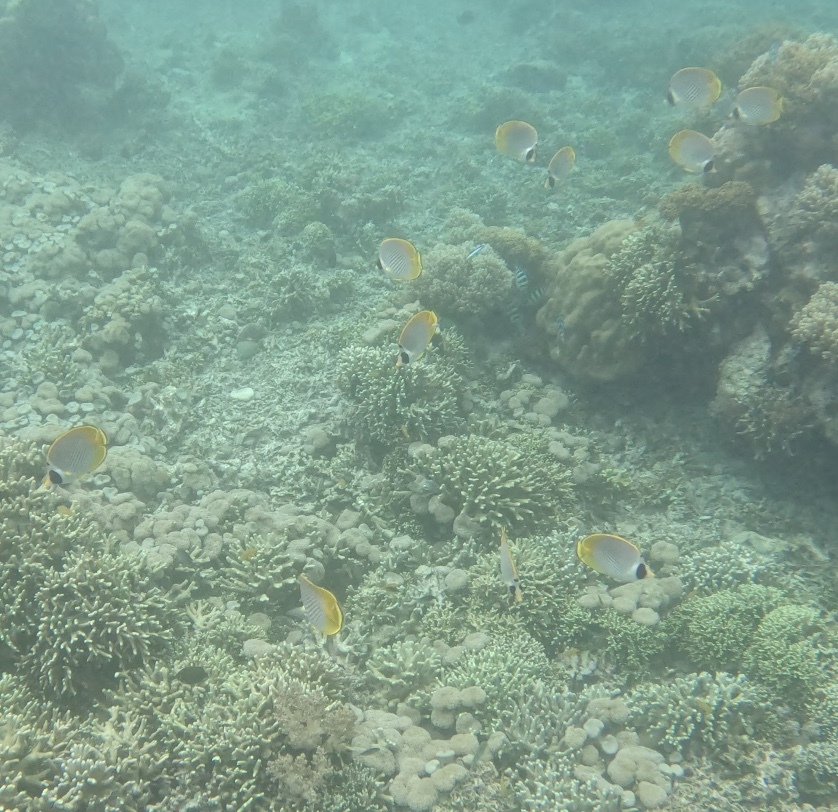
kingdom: Animalia
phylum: Chordata
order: Perciformes
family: Chaetodontidae
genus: Chaetodon
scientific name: Chaetodon adiergastos
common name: Eye-patch butterflyfish
